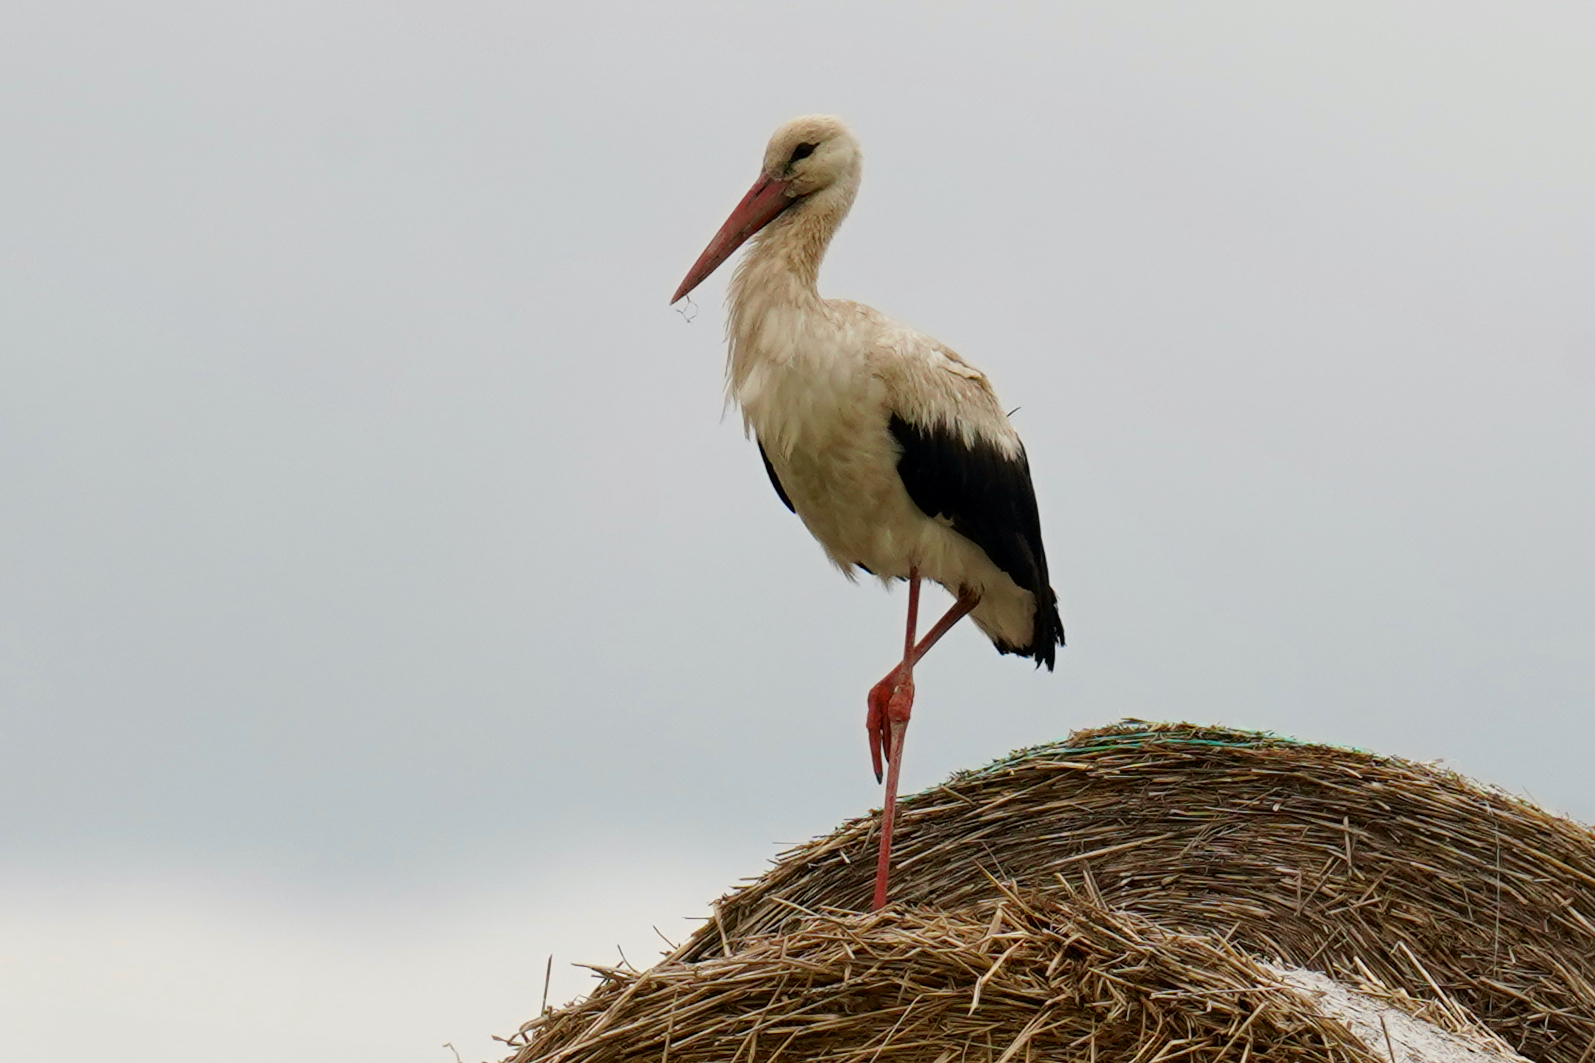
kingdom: Animalia
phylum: Chordata
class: Aves
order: Ciconiiformes
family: Ciconiidae
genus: Ciconia
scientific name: Ciconia ciconia
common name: White stork
